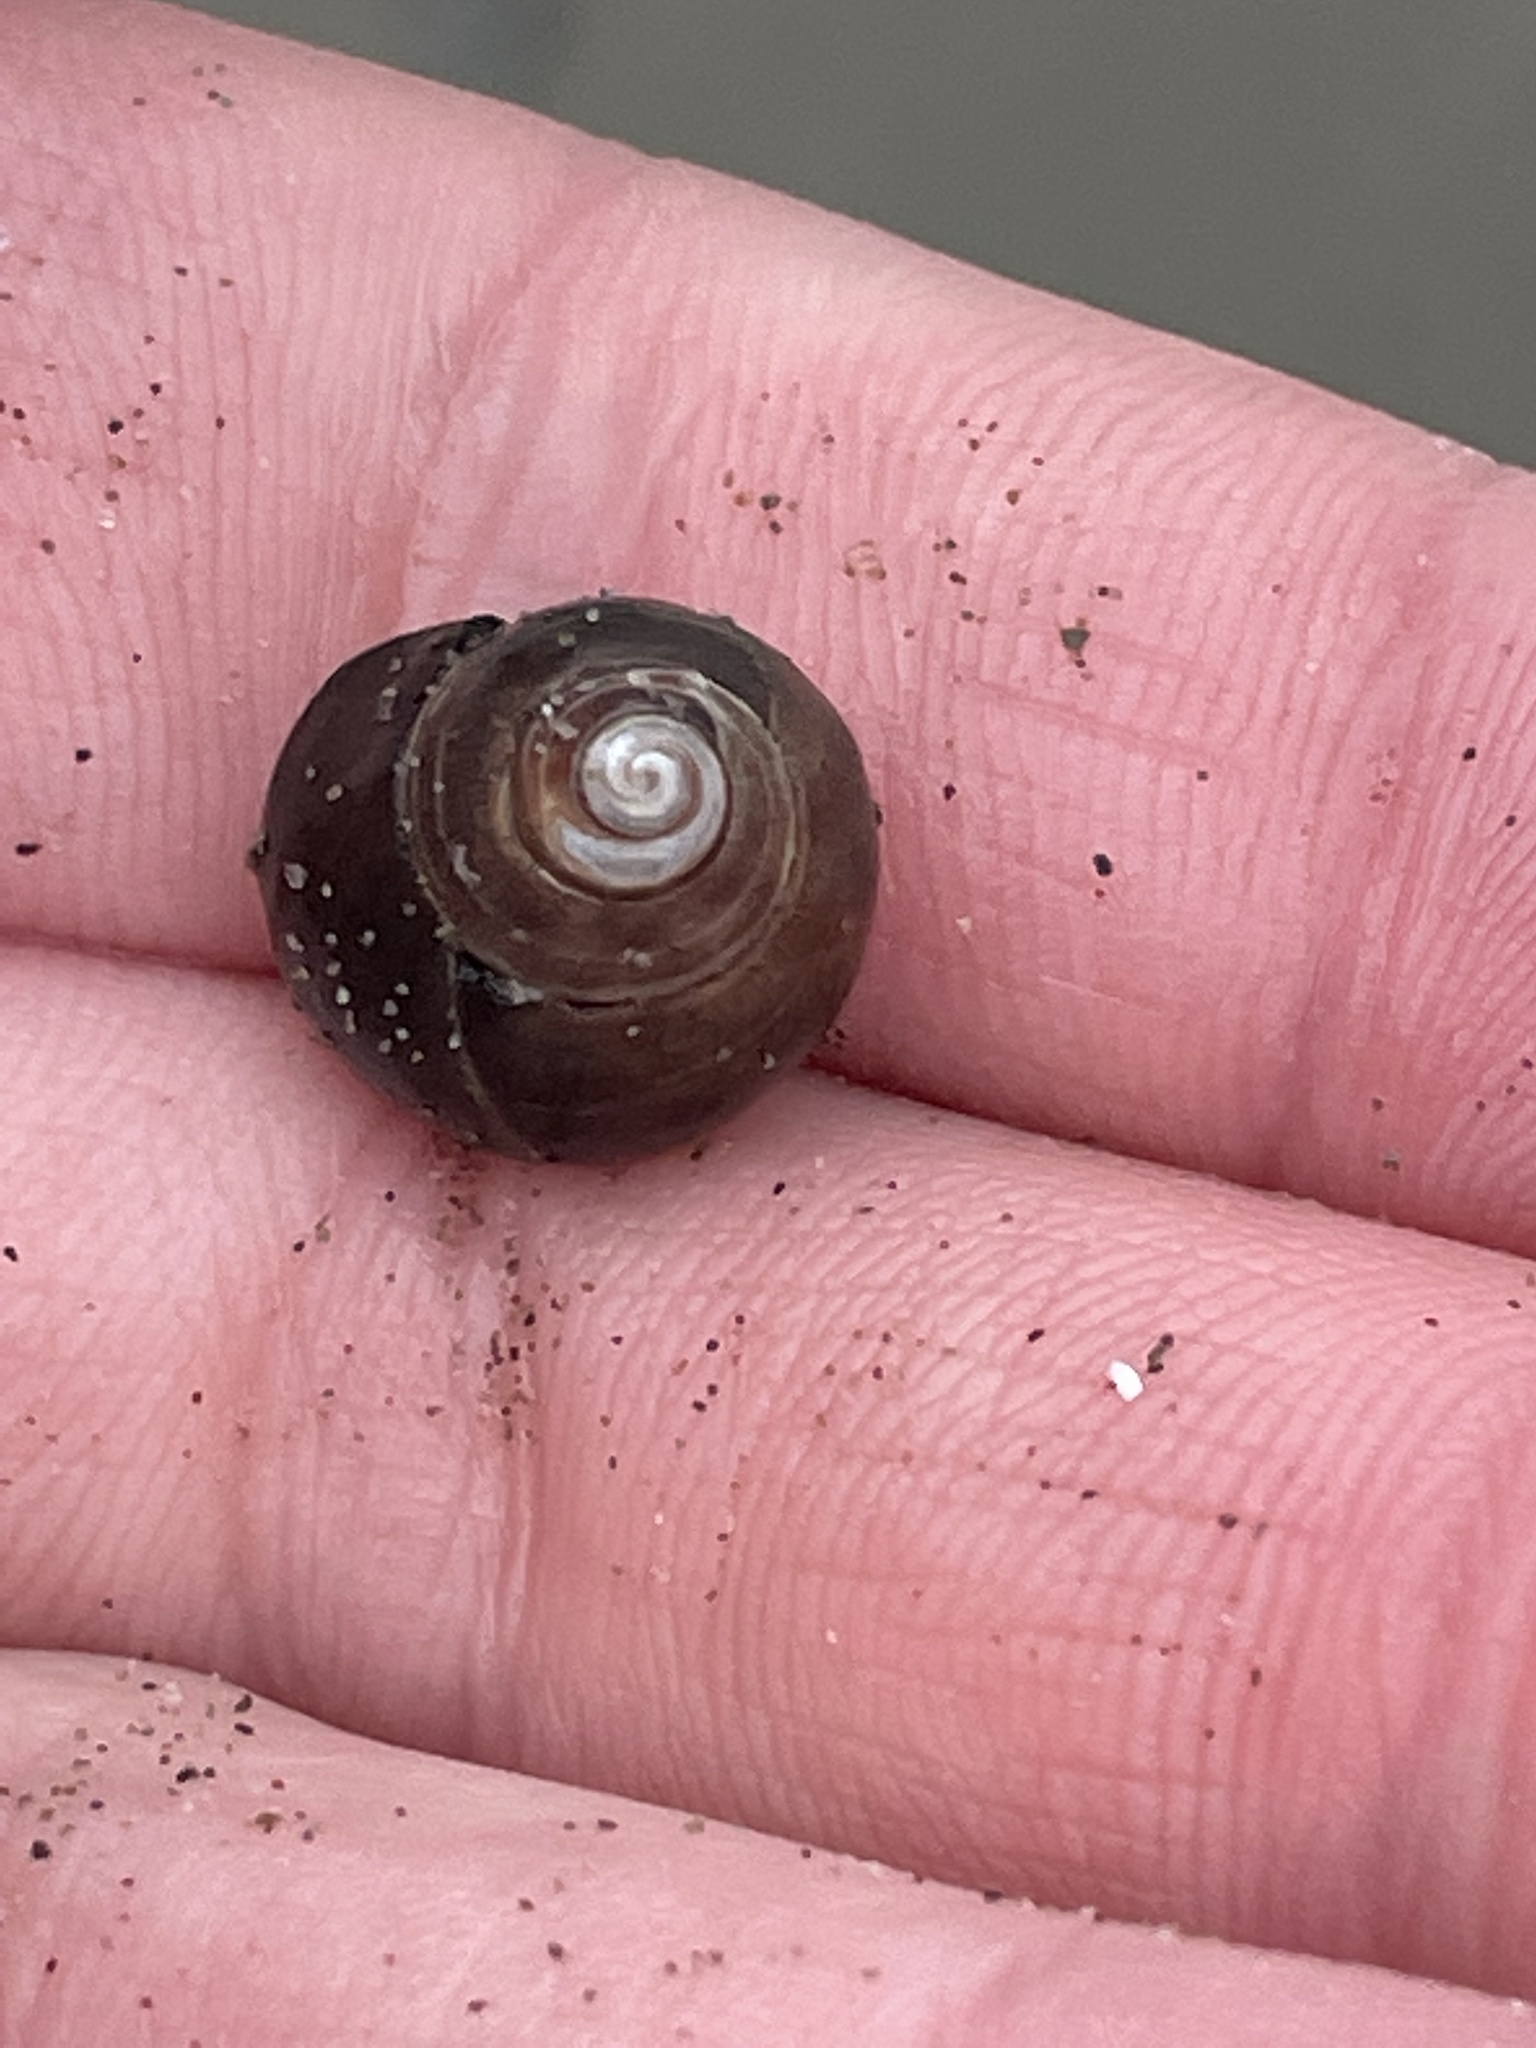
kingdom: Animalia
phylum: Mollusca
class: Gastropoda
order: Littorinimorpha
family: Littorinidae
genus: Littorina
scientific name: Littorina littorea
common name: Common periwinkle
